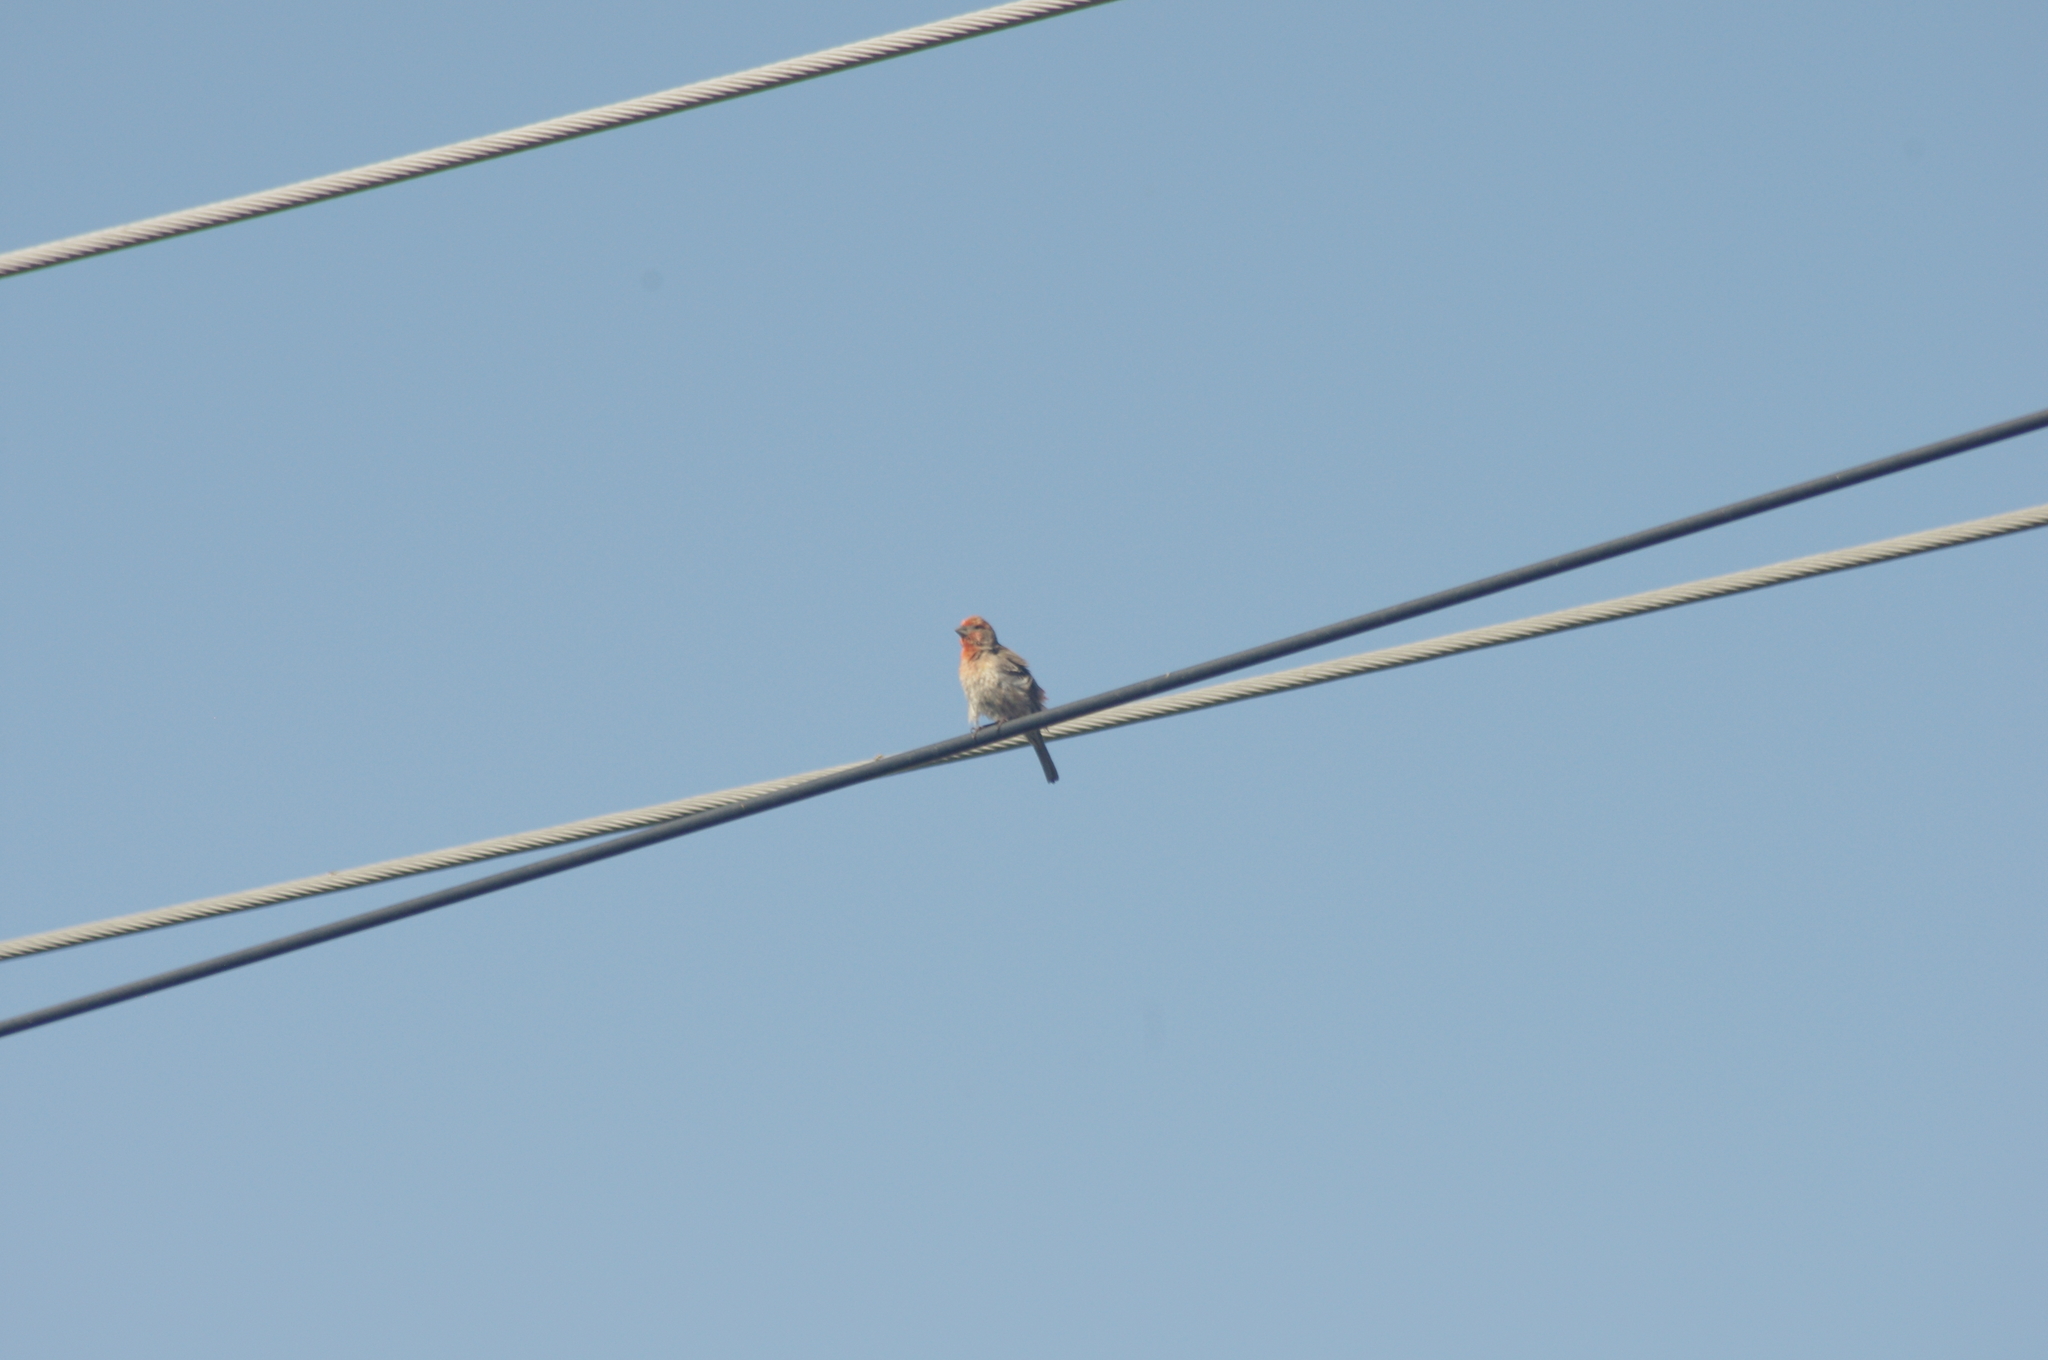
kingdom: Animalia
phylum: Chordata
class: Aves
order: Passeriformes
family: Fringillidae
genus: Haemorhous
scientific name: Haemorhous mexicanus
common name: House finch
